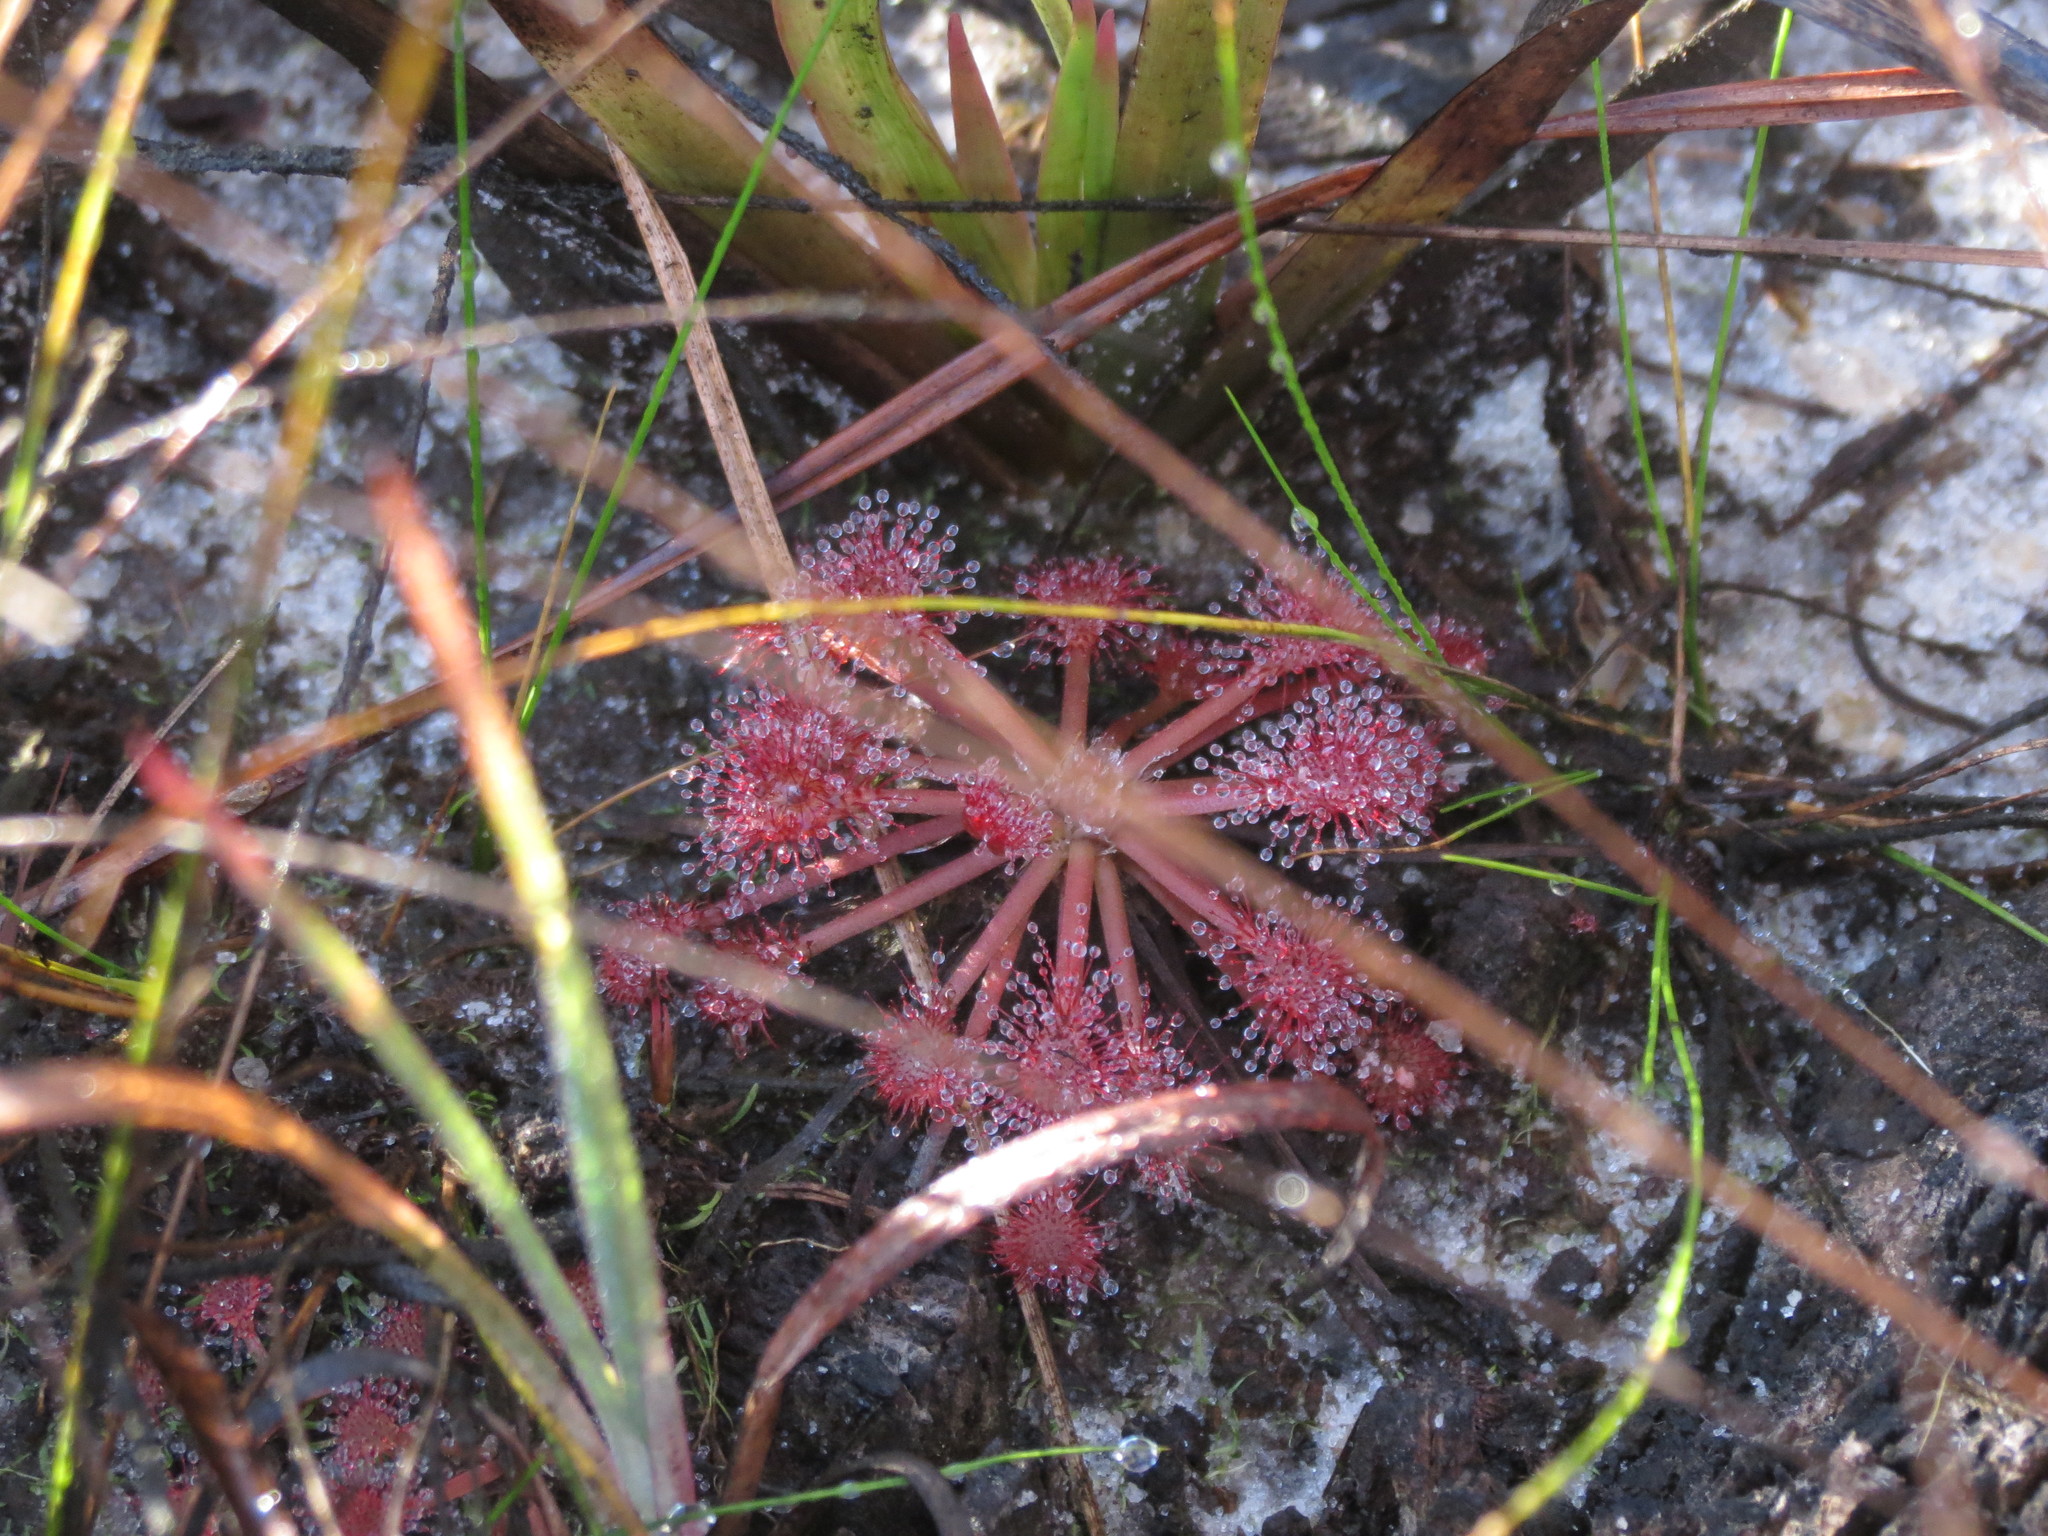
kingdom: Plantae
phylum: Tracheophyta
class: Magnoliopsida
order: Caryophyllales
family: Droseraceae
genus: Drosera
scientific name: Drosera capillaris
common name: Pink sundew
